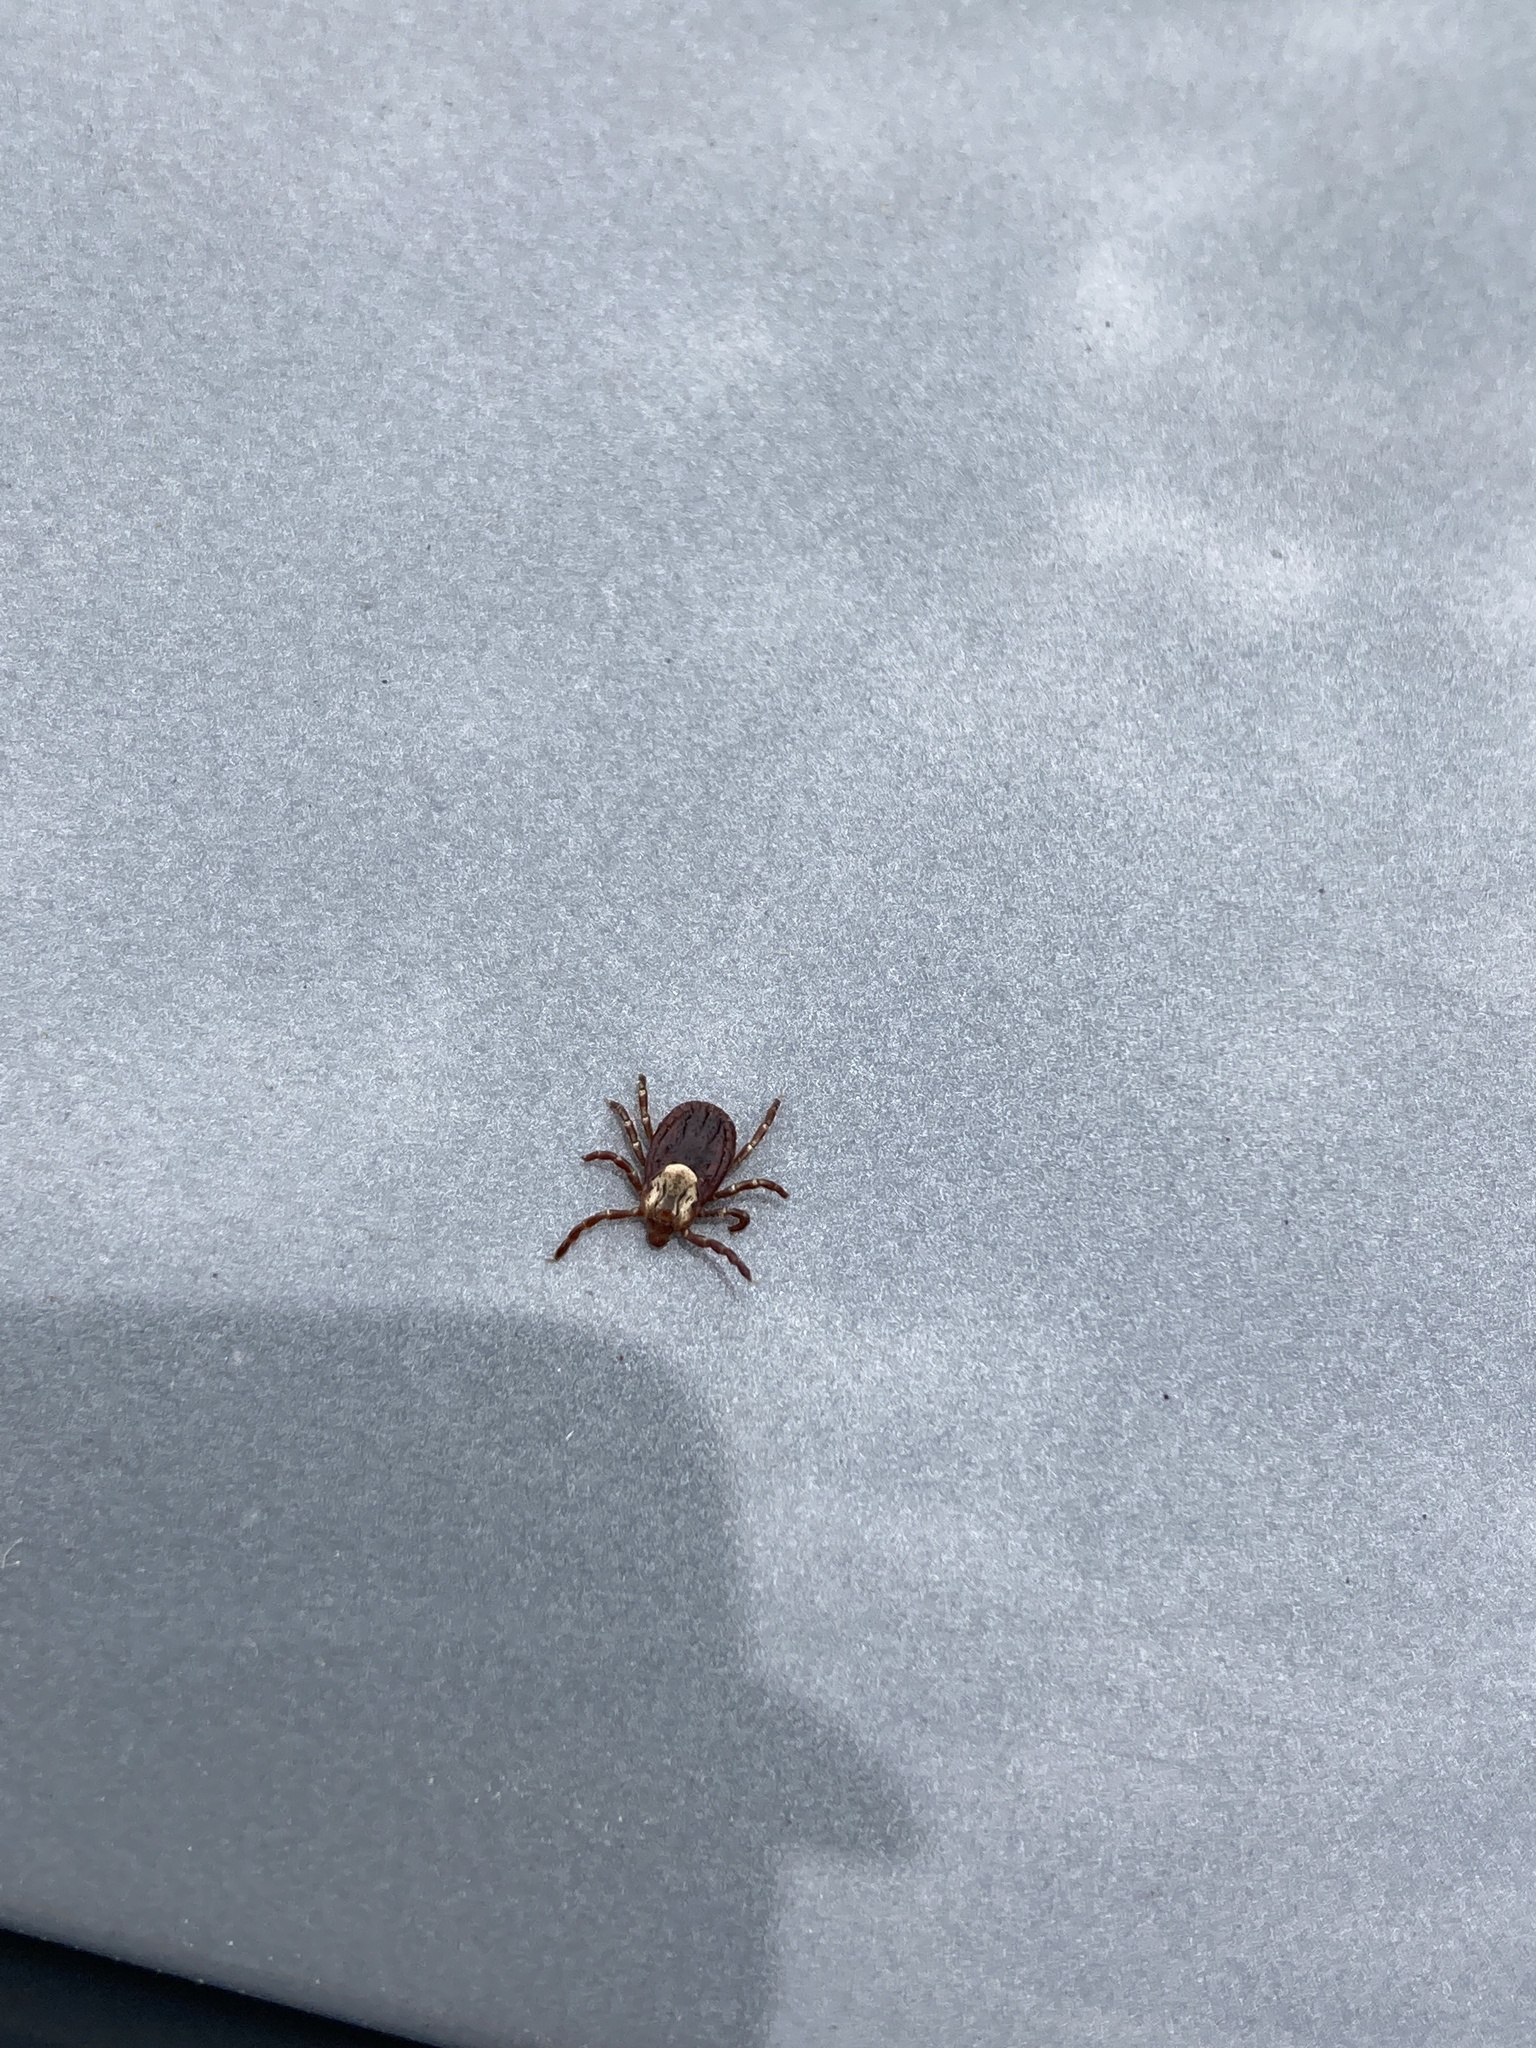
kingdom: Animalia
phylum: Arthropoda
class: Arachnida
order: Ixodida
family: Ixodidae
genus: Dermacentor
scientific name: Dermacentor variabilis
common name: American dog tick
